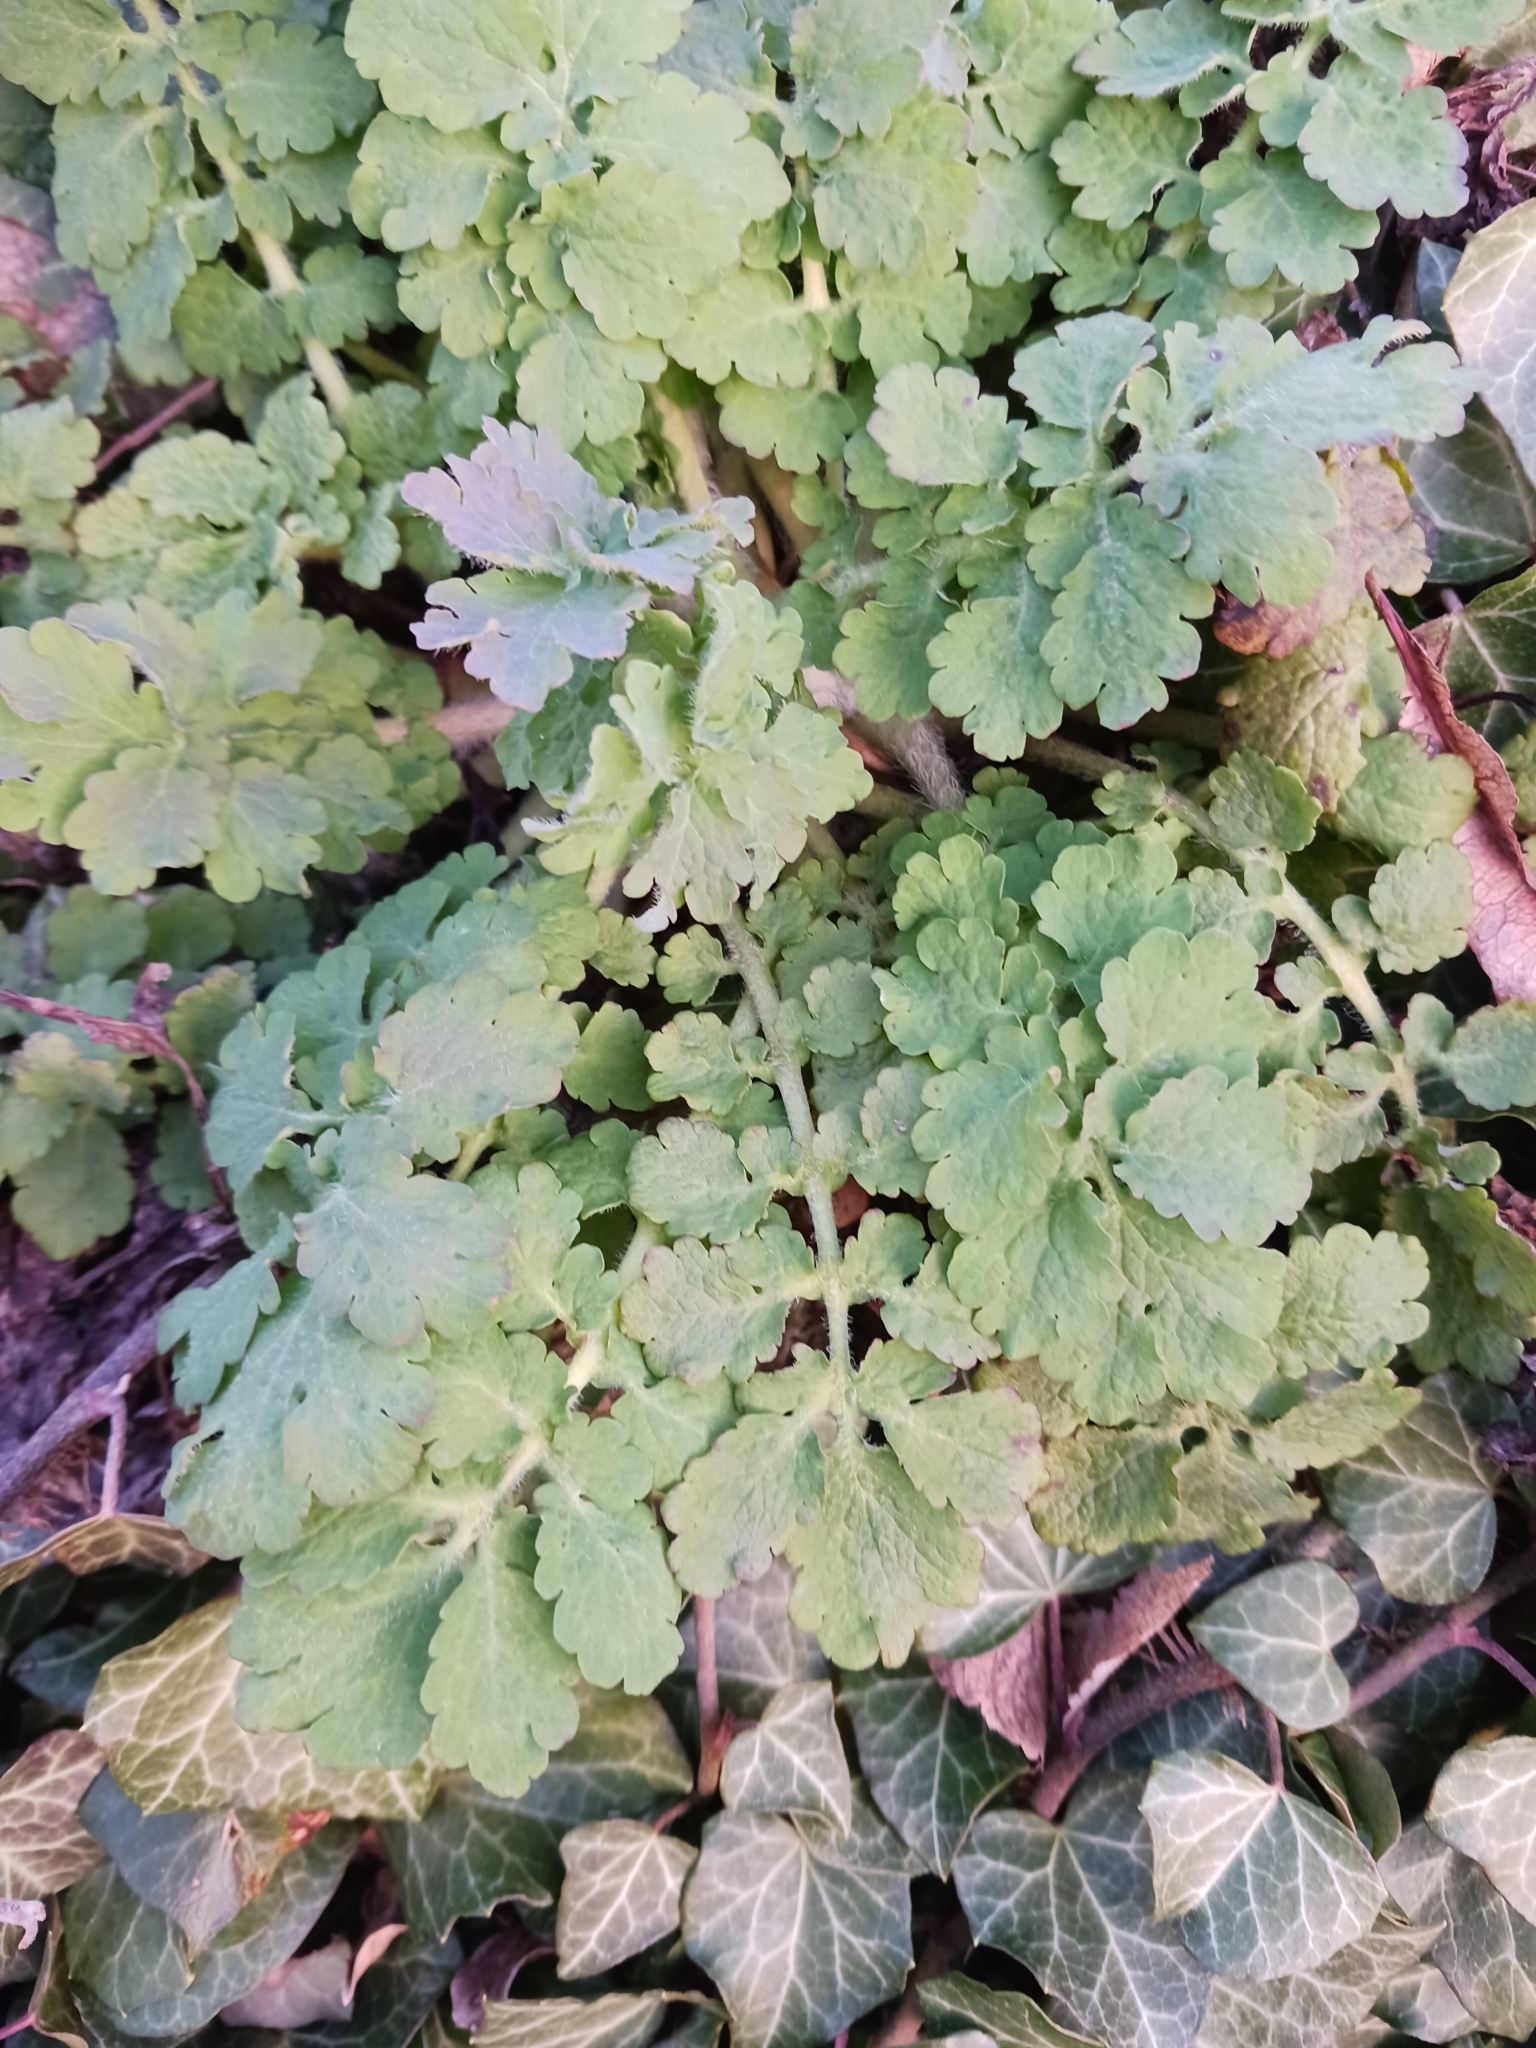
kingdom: Plantae
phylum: Tracheophyta
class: Magnoliopsida
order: Ranunculales
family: Papaveraceae
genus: Chelidonium
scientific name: Chelidonium majus
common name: Greater celandine
